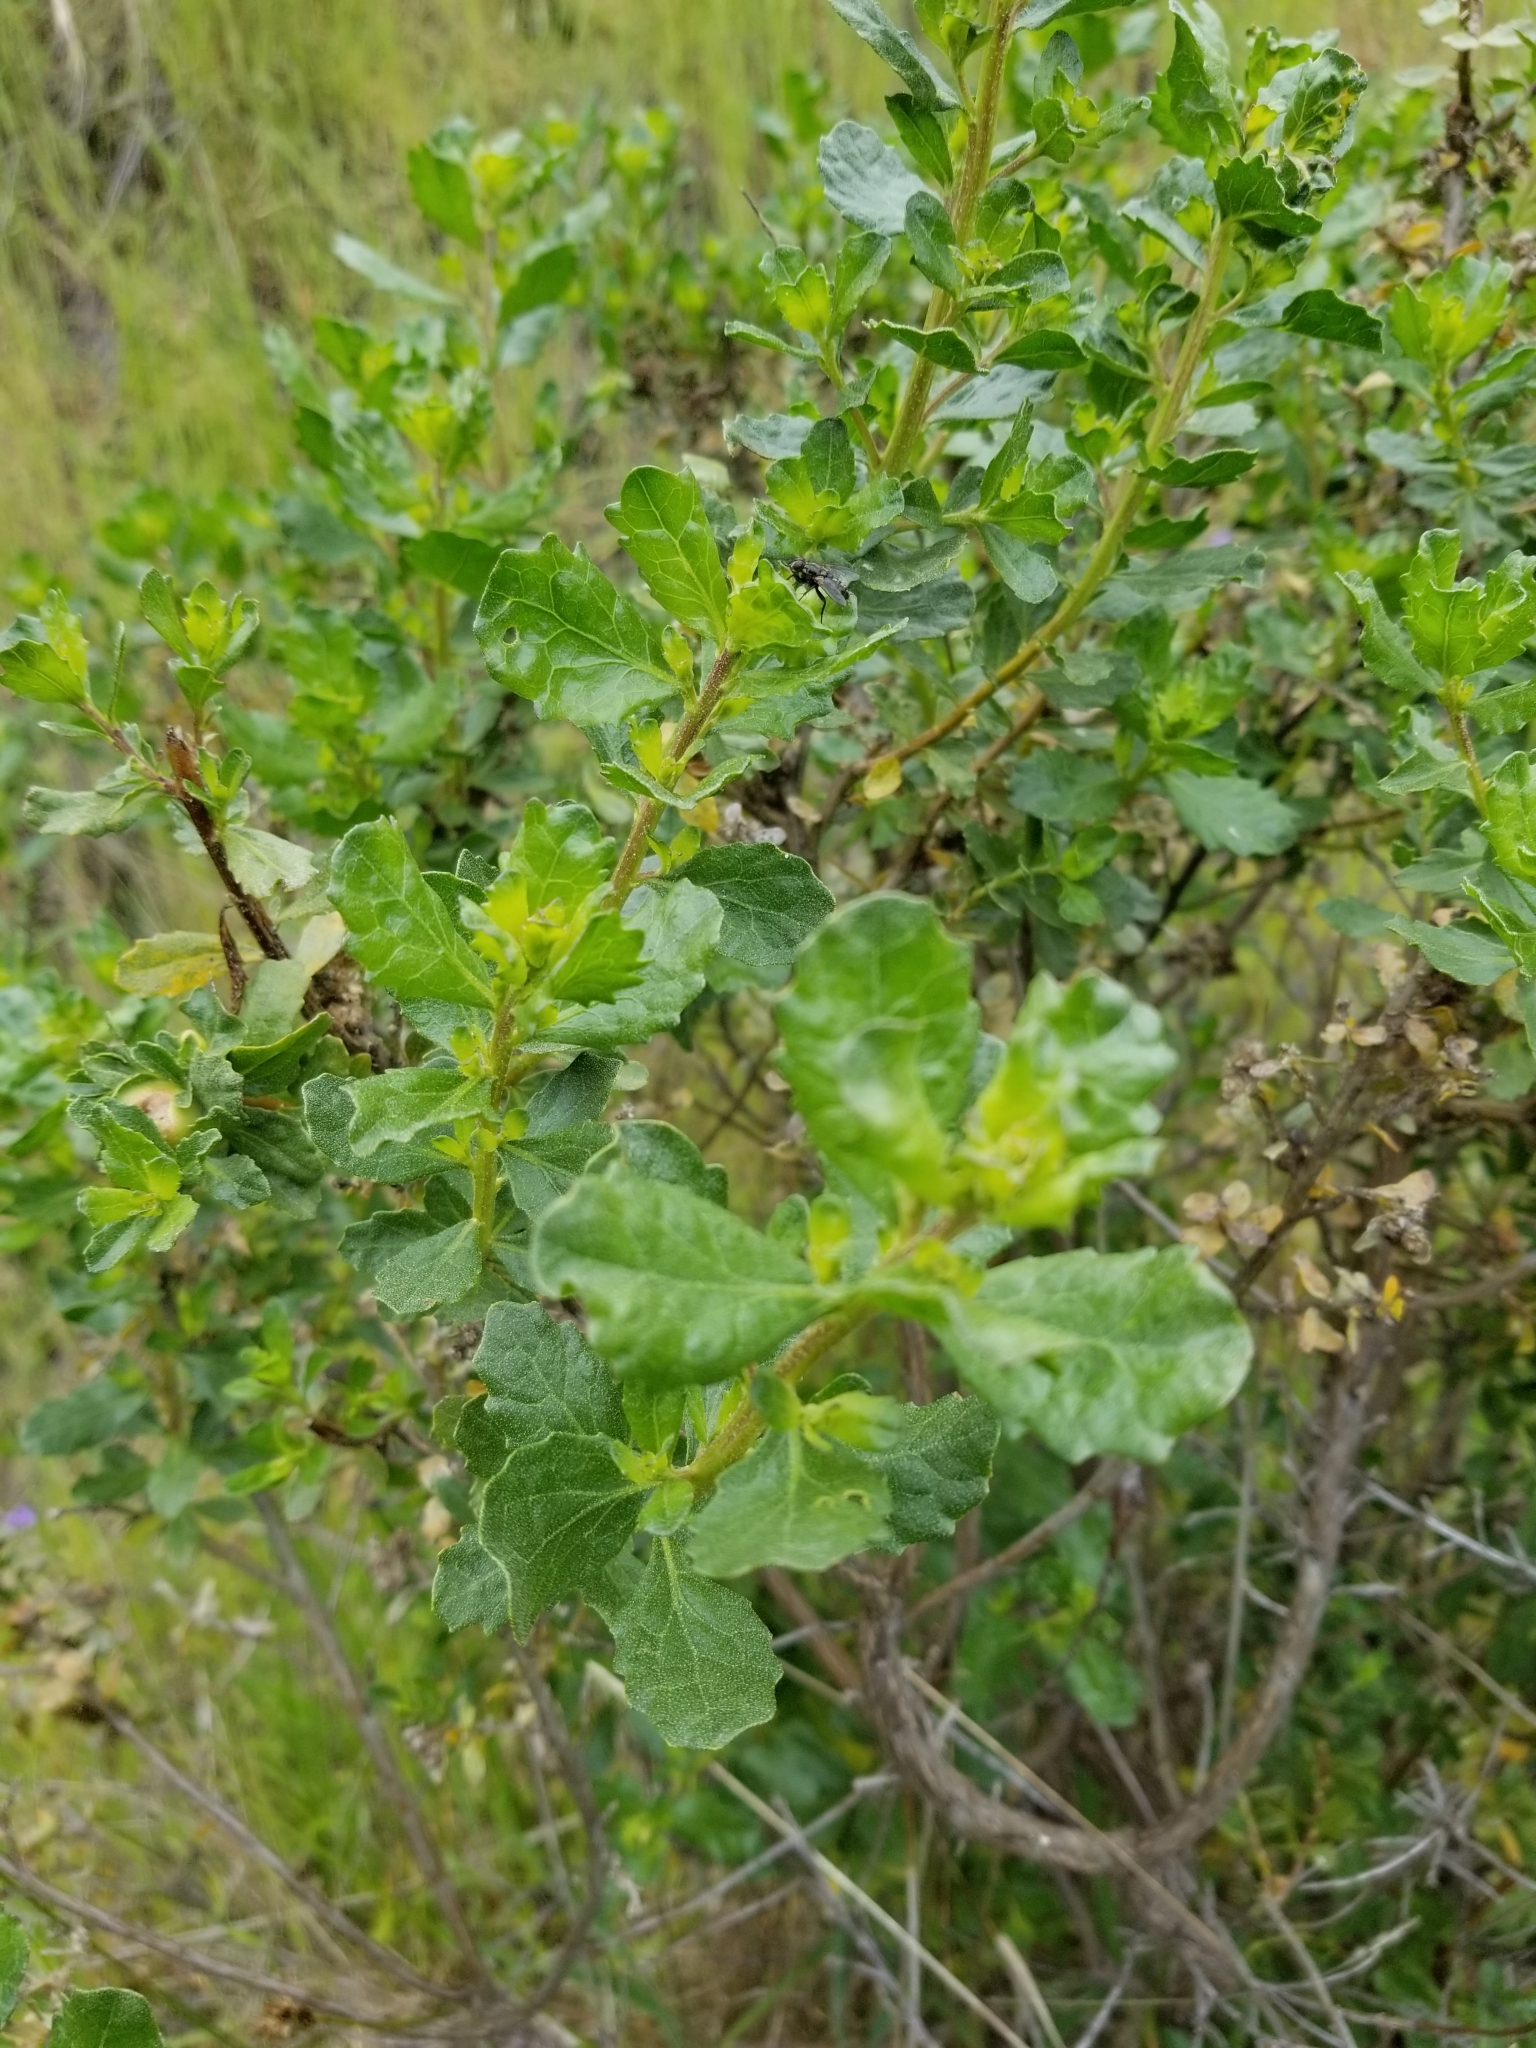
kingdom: Plantae
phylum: Tracheophyta
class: Magnoliopsida
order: Asterales
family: Asteraceae
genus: Baccharis
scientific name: Baccharis pilularis
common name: Coyotebrush
